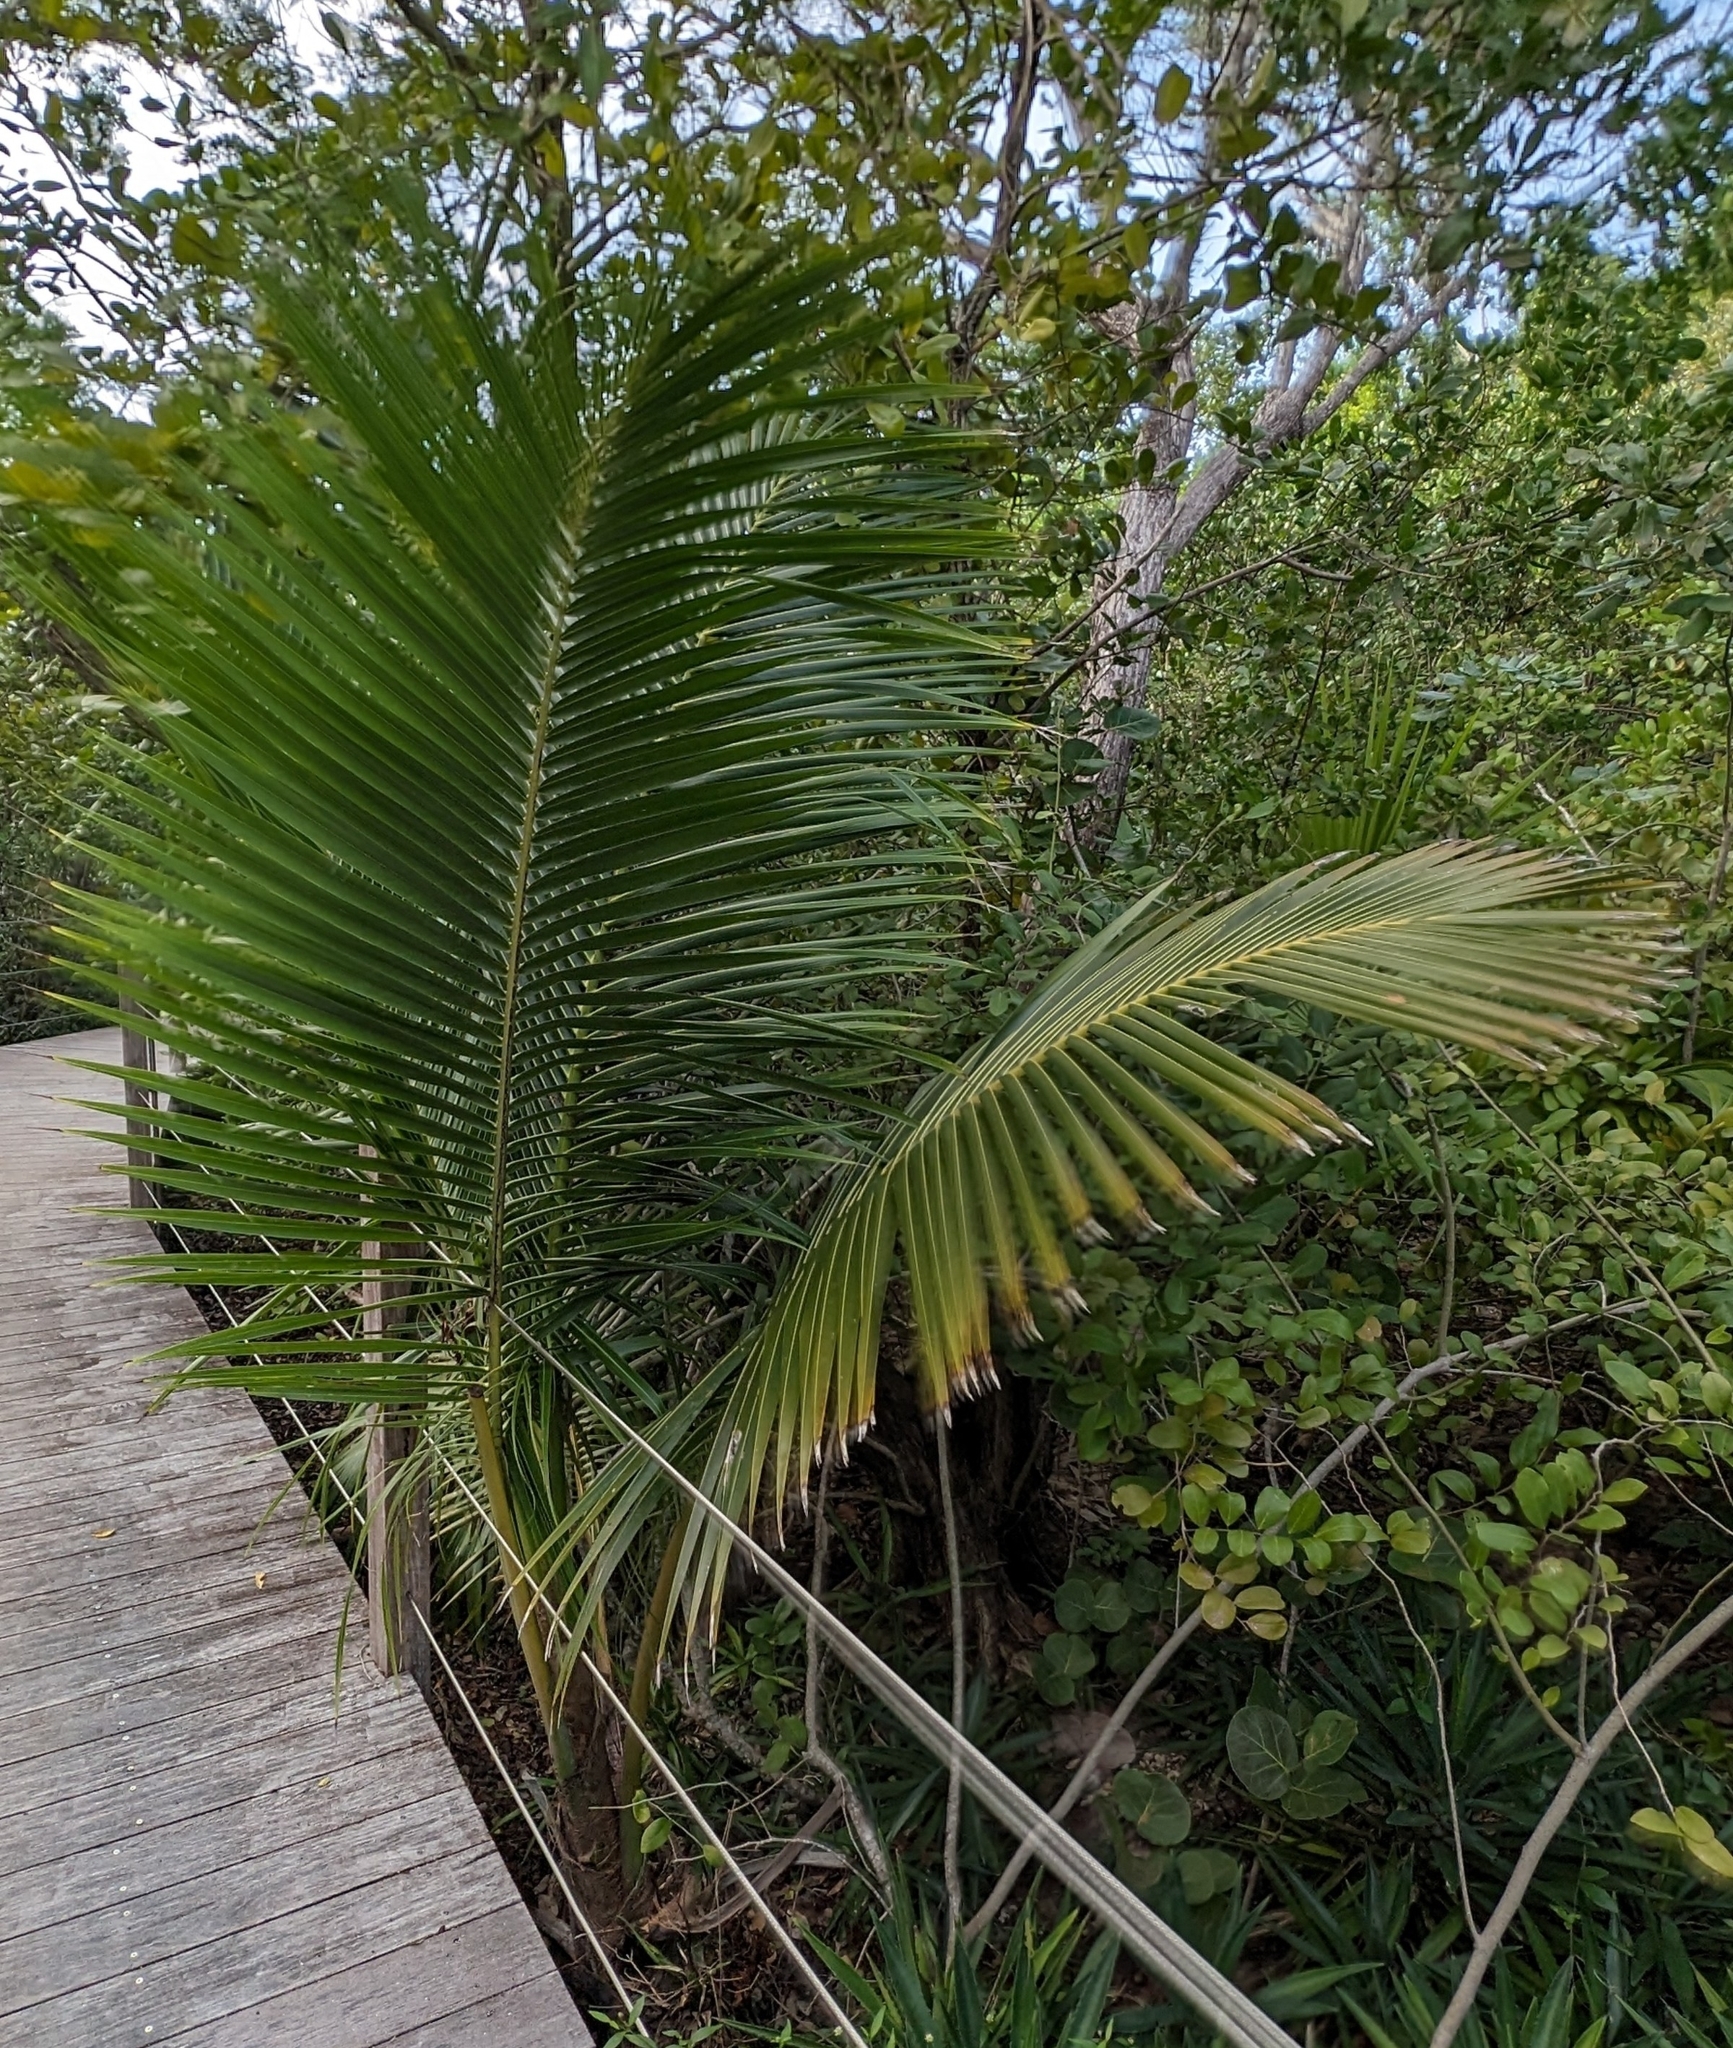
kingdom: Plantae
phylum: Tracheophyta
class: Liliopsida
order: Arecales
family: Arecaceae
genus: Cocos
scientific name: Cocos nucifera
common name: Coconut palm
